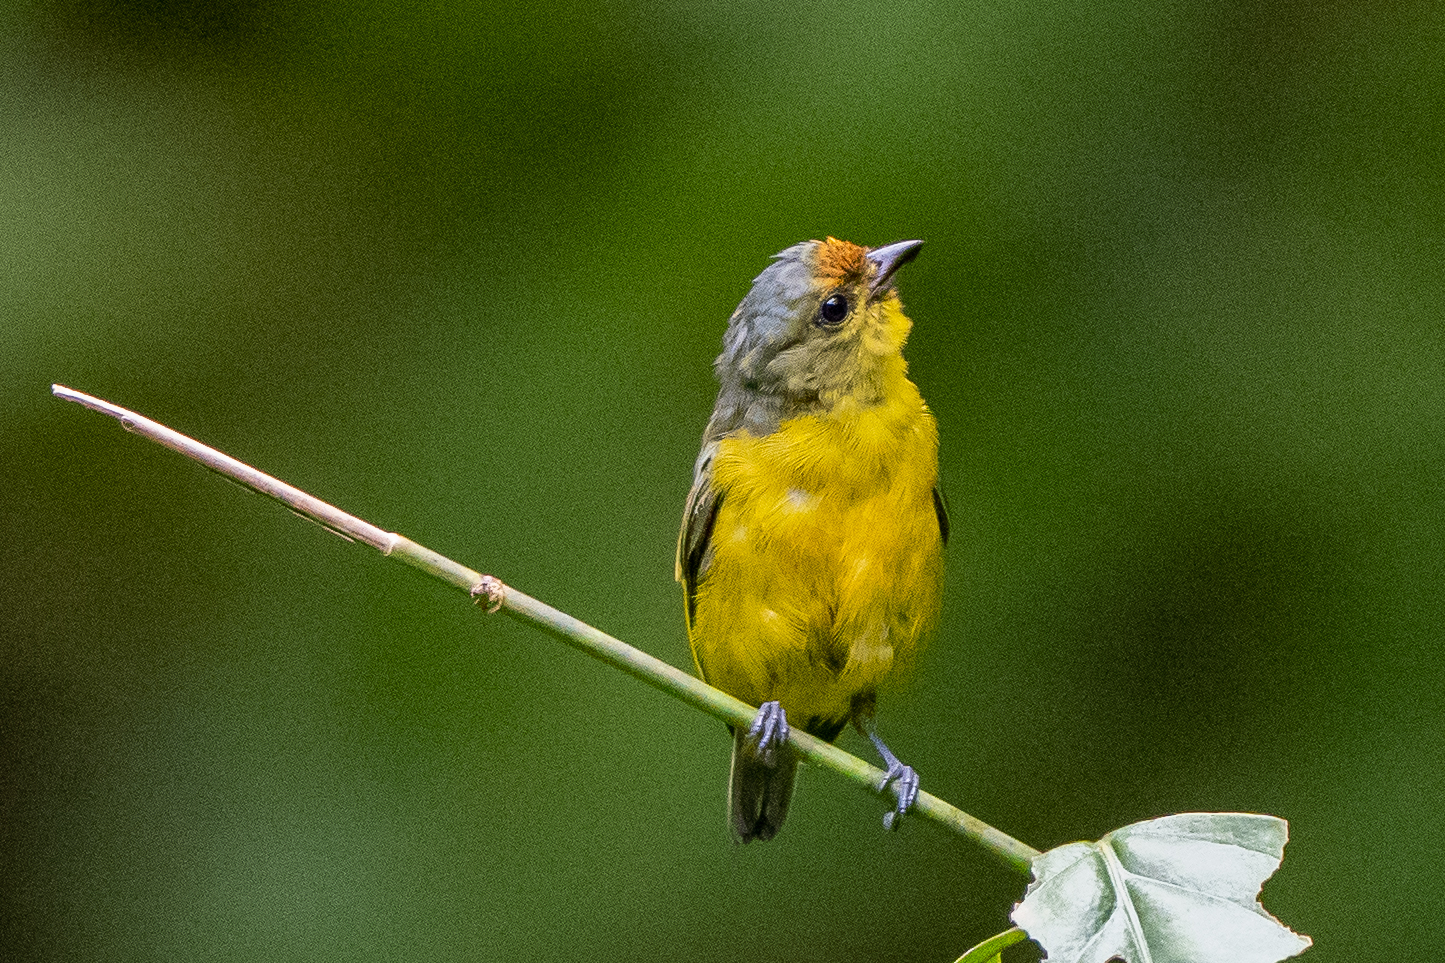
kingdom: Animalia
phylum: Chordata
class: Aves
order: Passeriformes
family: Fringillidae
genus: Euphonia
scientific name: Euphonia fulvicrissa
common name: Fulvous-vented euphonia
